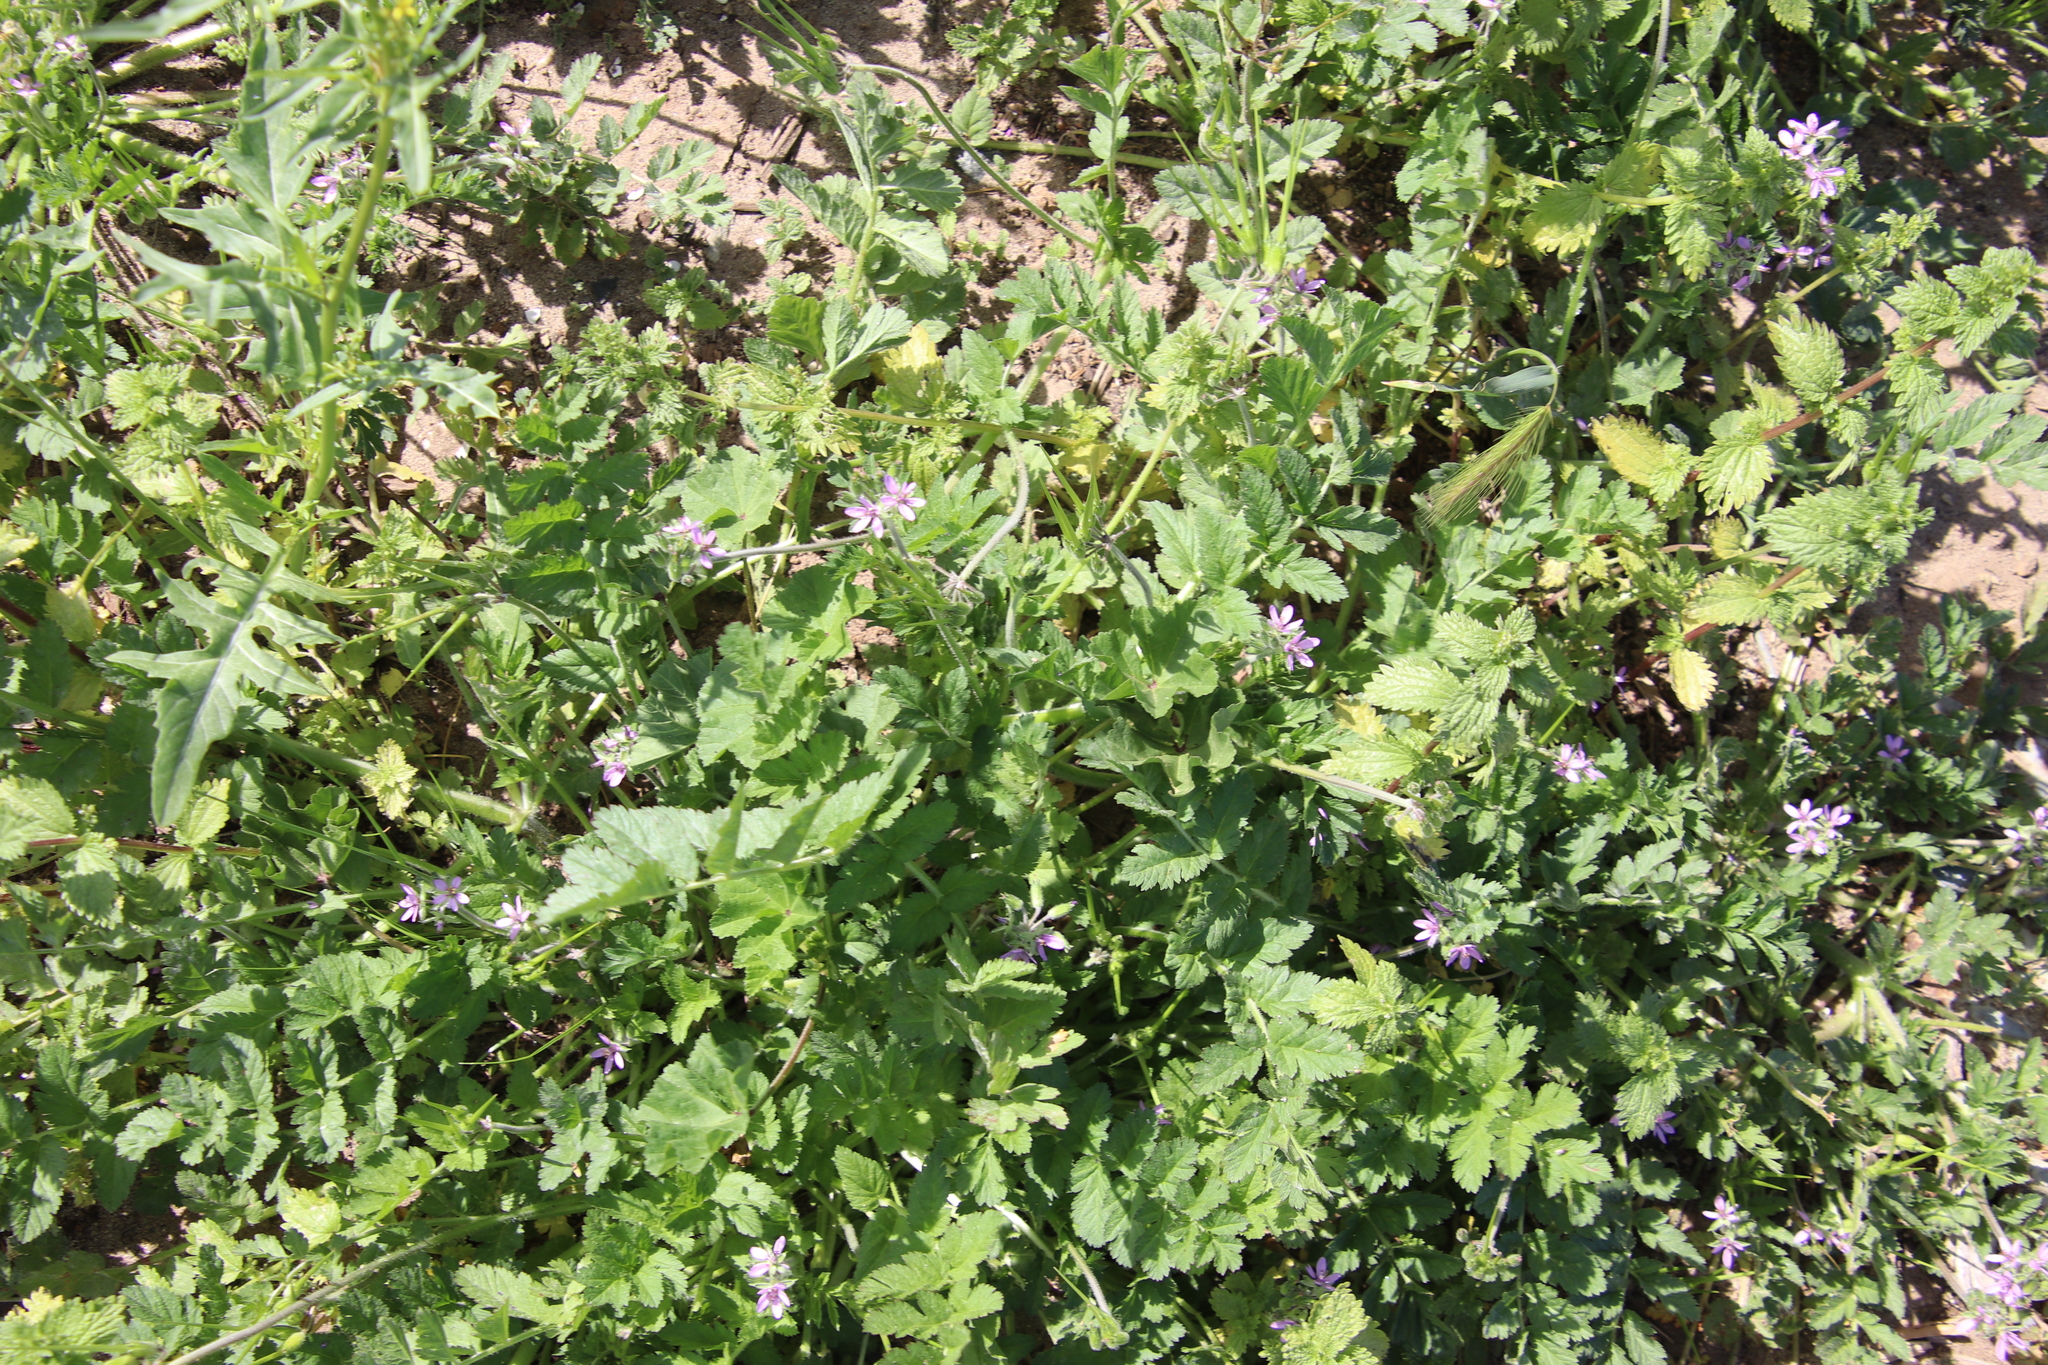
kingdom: Plantae
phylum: Tracheophyta
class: Magnoliopsida
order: Geraniales
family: Geraniaceae
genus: Erodium
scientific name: Erodium moschatum
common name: Musk stork's-bill
